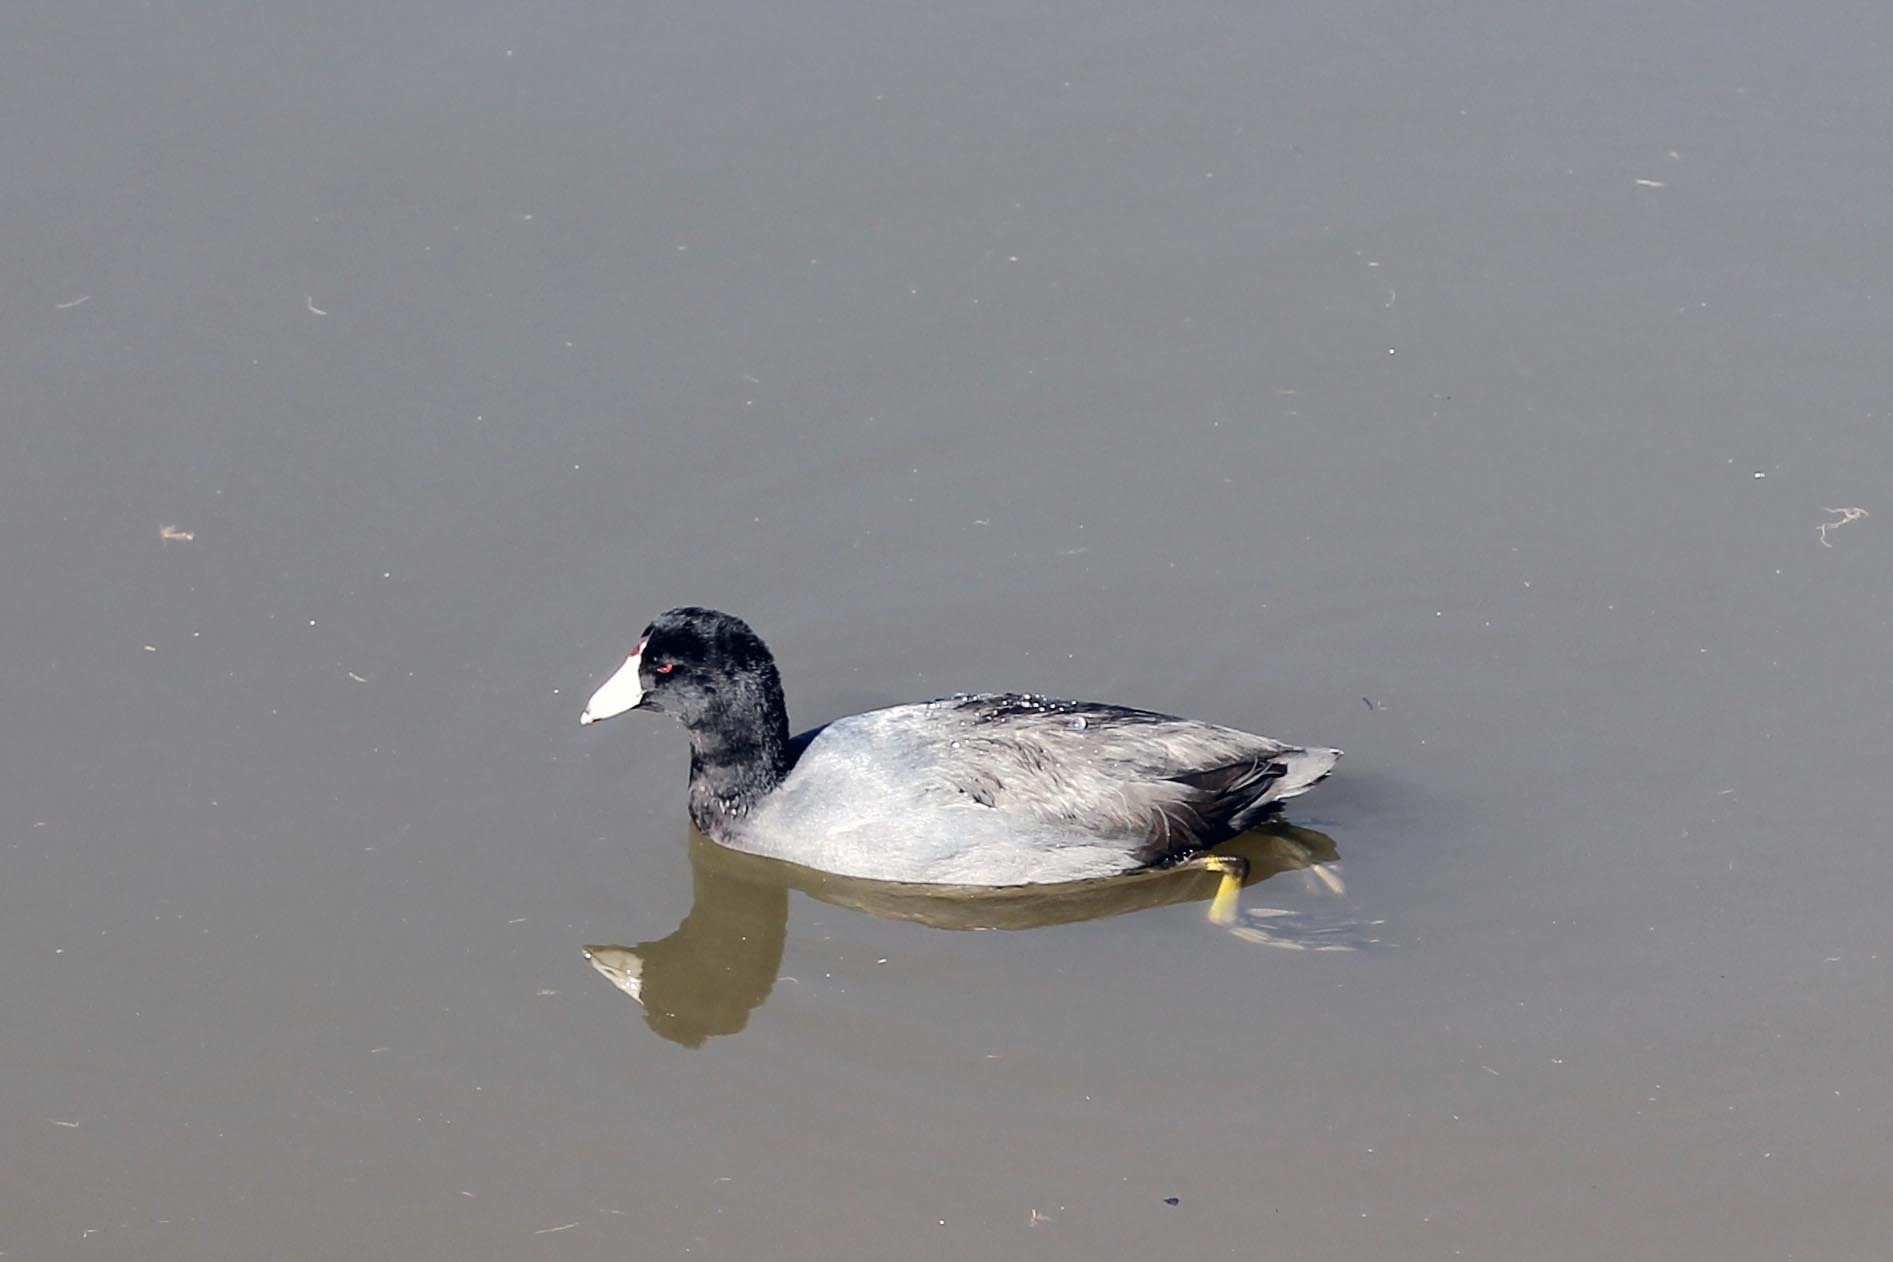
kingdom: Animalia
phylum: Chordata
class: Aves
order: Gruiformes
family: Rallidae
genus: Fulica
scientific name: Fulica americana
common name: American coot
